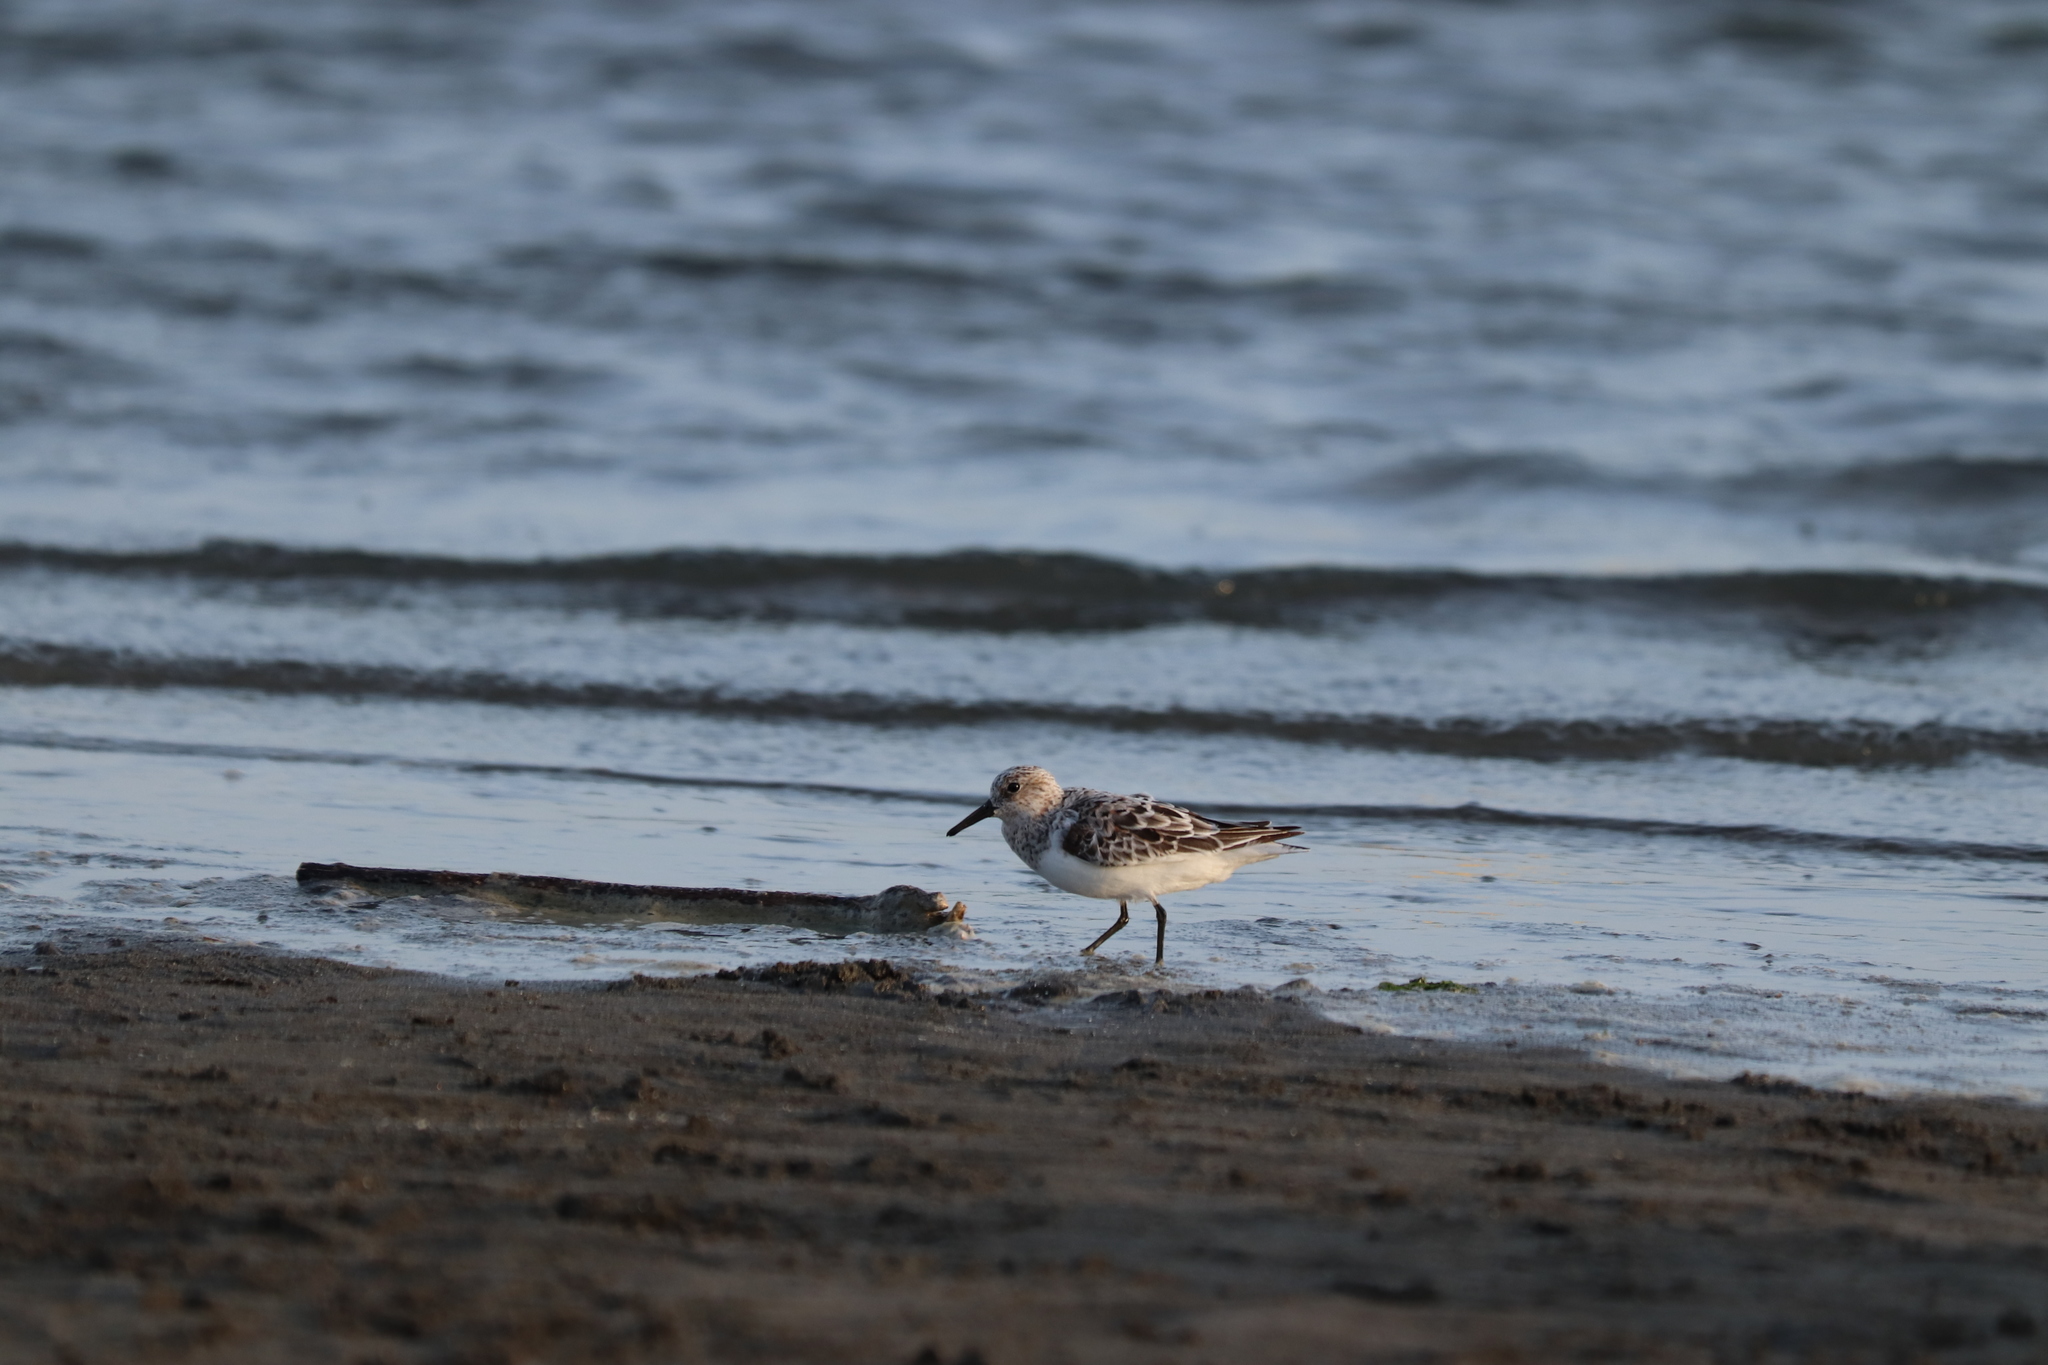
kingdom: Animalia
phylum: Chordata
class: Aves
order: Charadriiformes
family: Scolopacidae
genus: Calidris
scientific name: Calidris alba
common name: Sanderling
